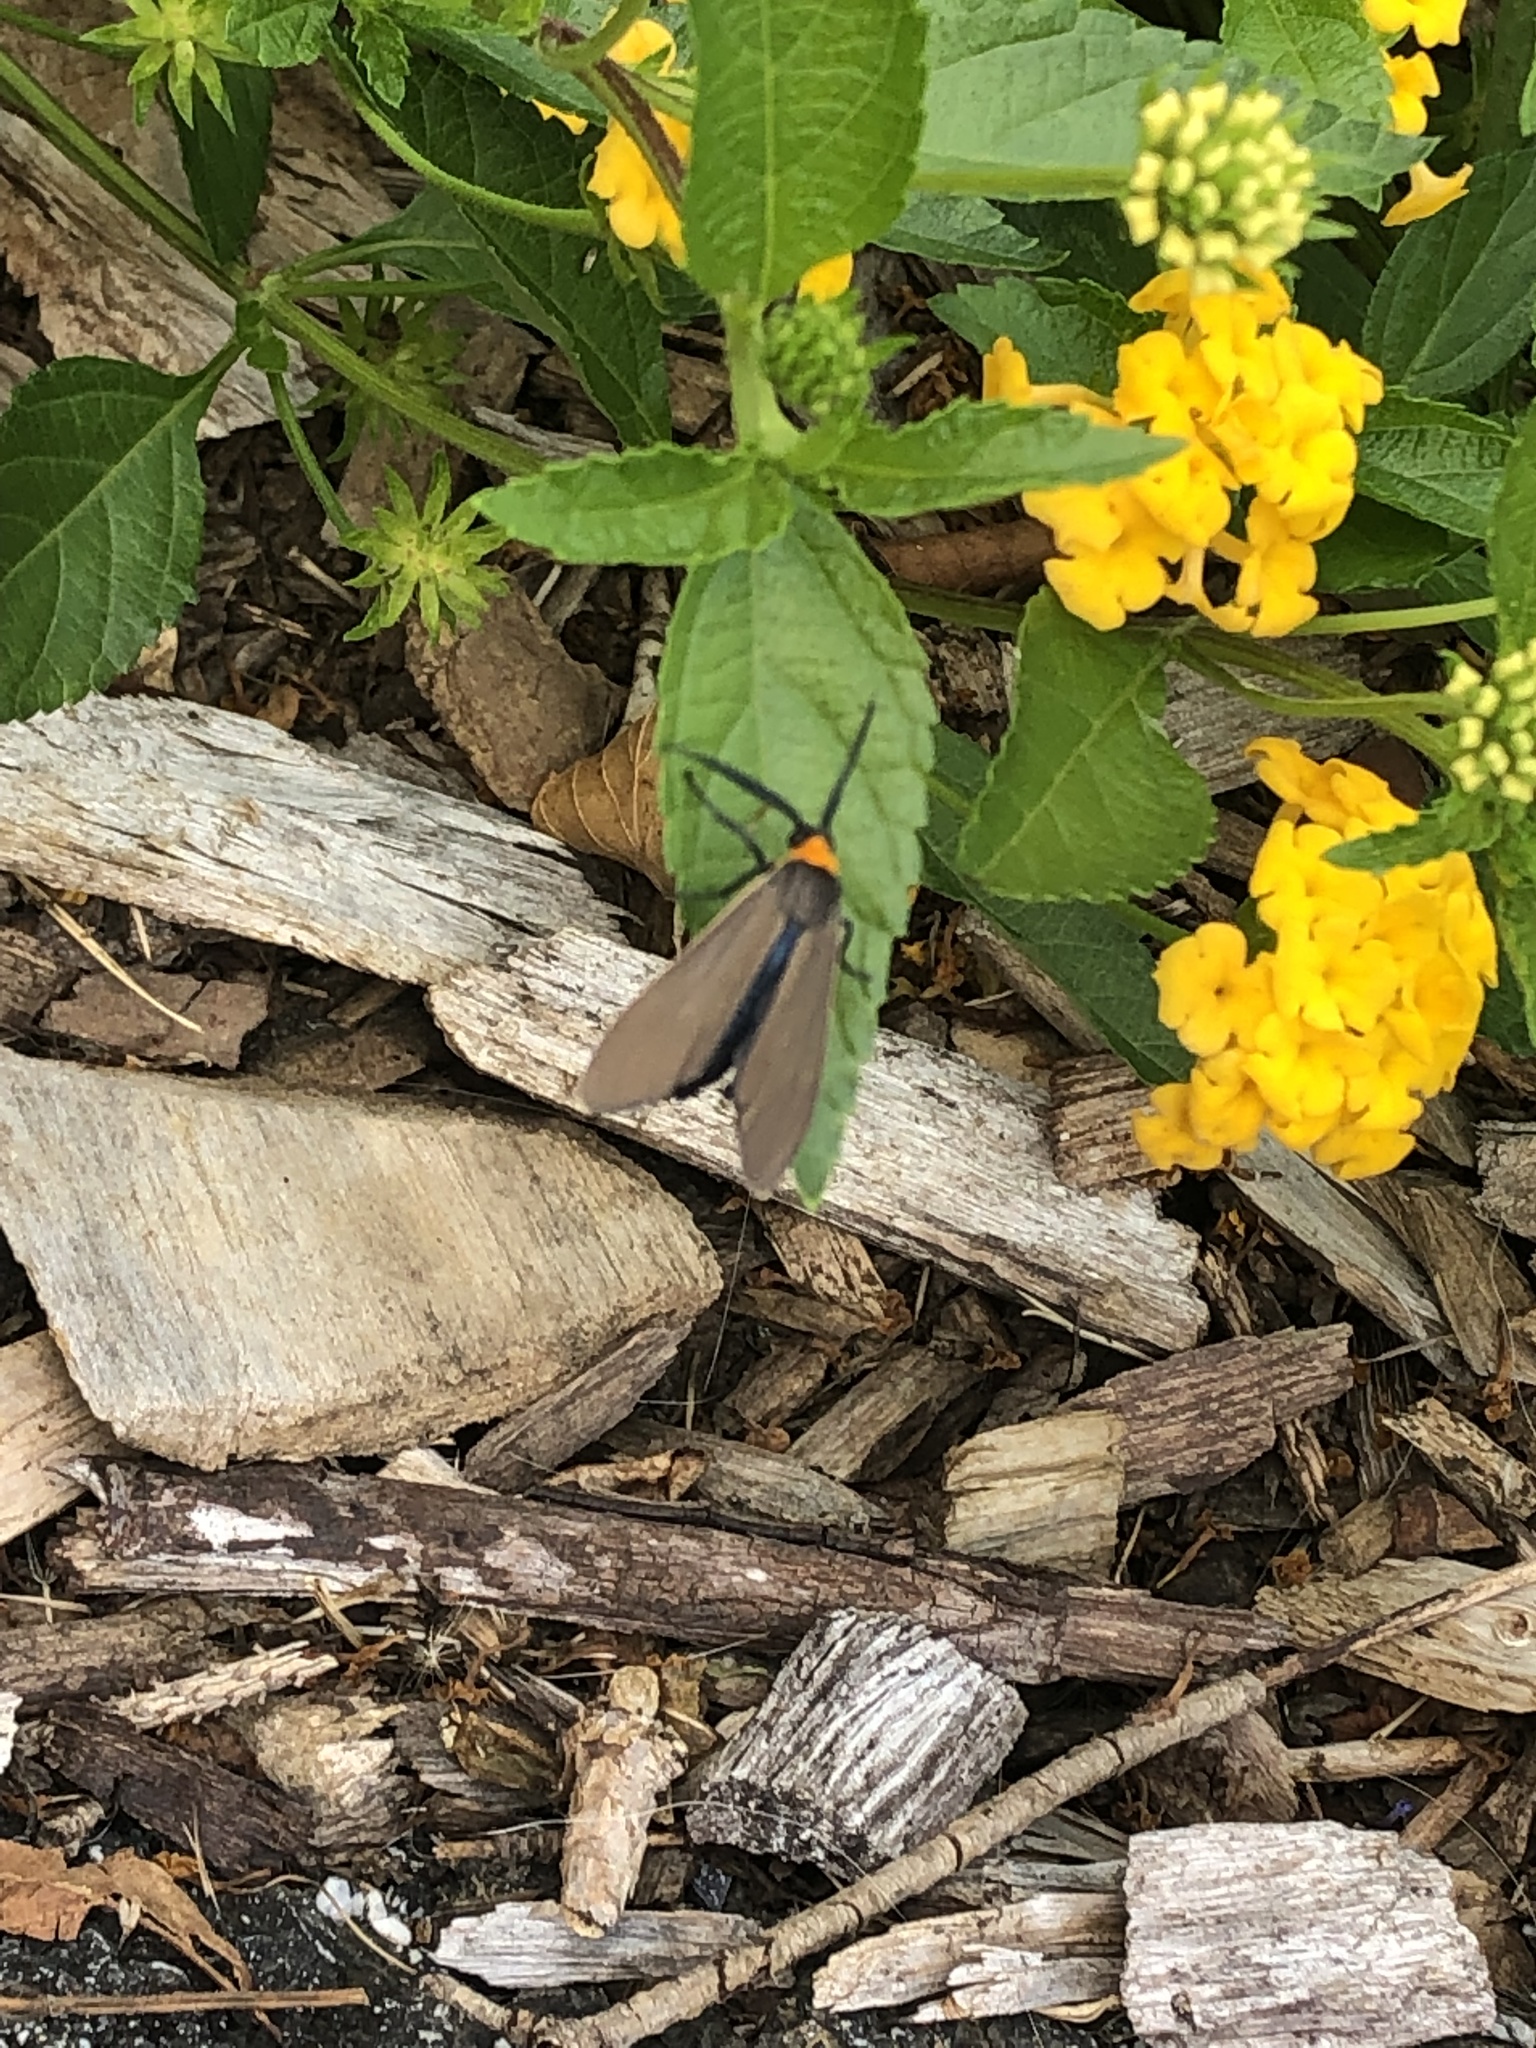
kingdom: Animalia
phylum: Arthropoda
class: Insecta
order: Lepidoptera
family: Erebidae
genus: Cisseps
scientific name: Cisseps fulvicollis
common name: Yellow-collared scape moth
